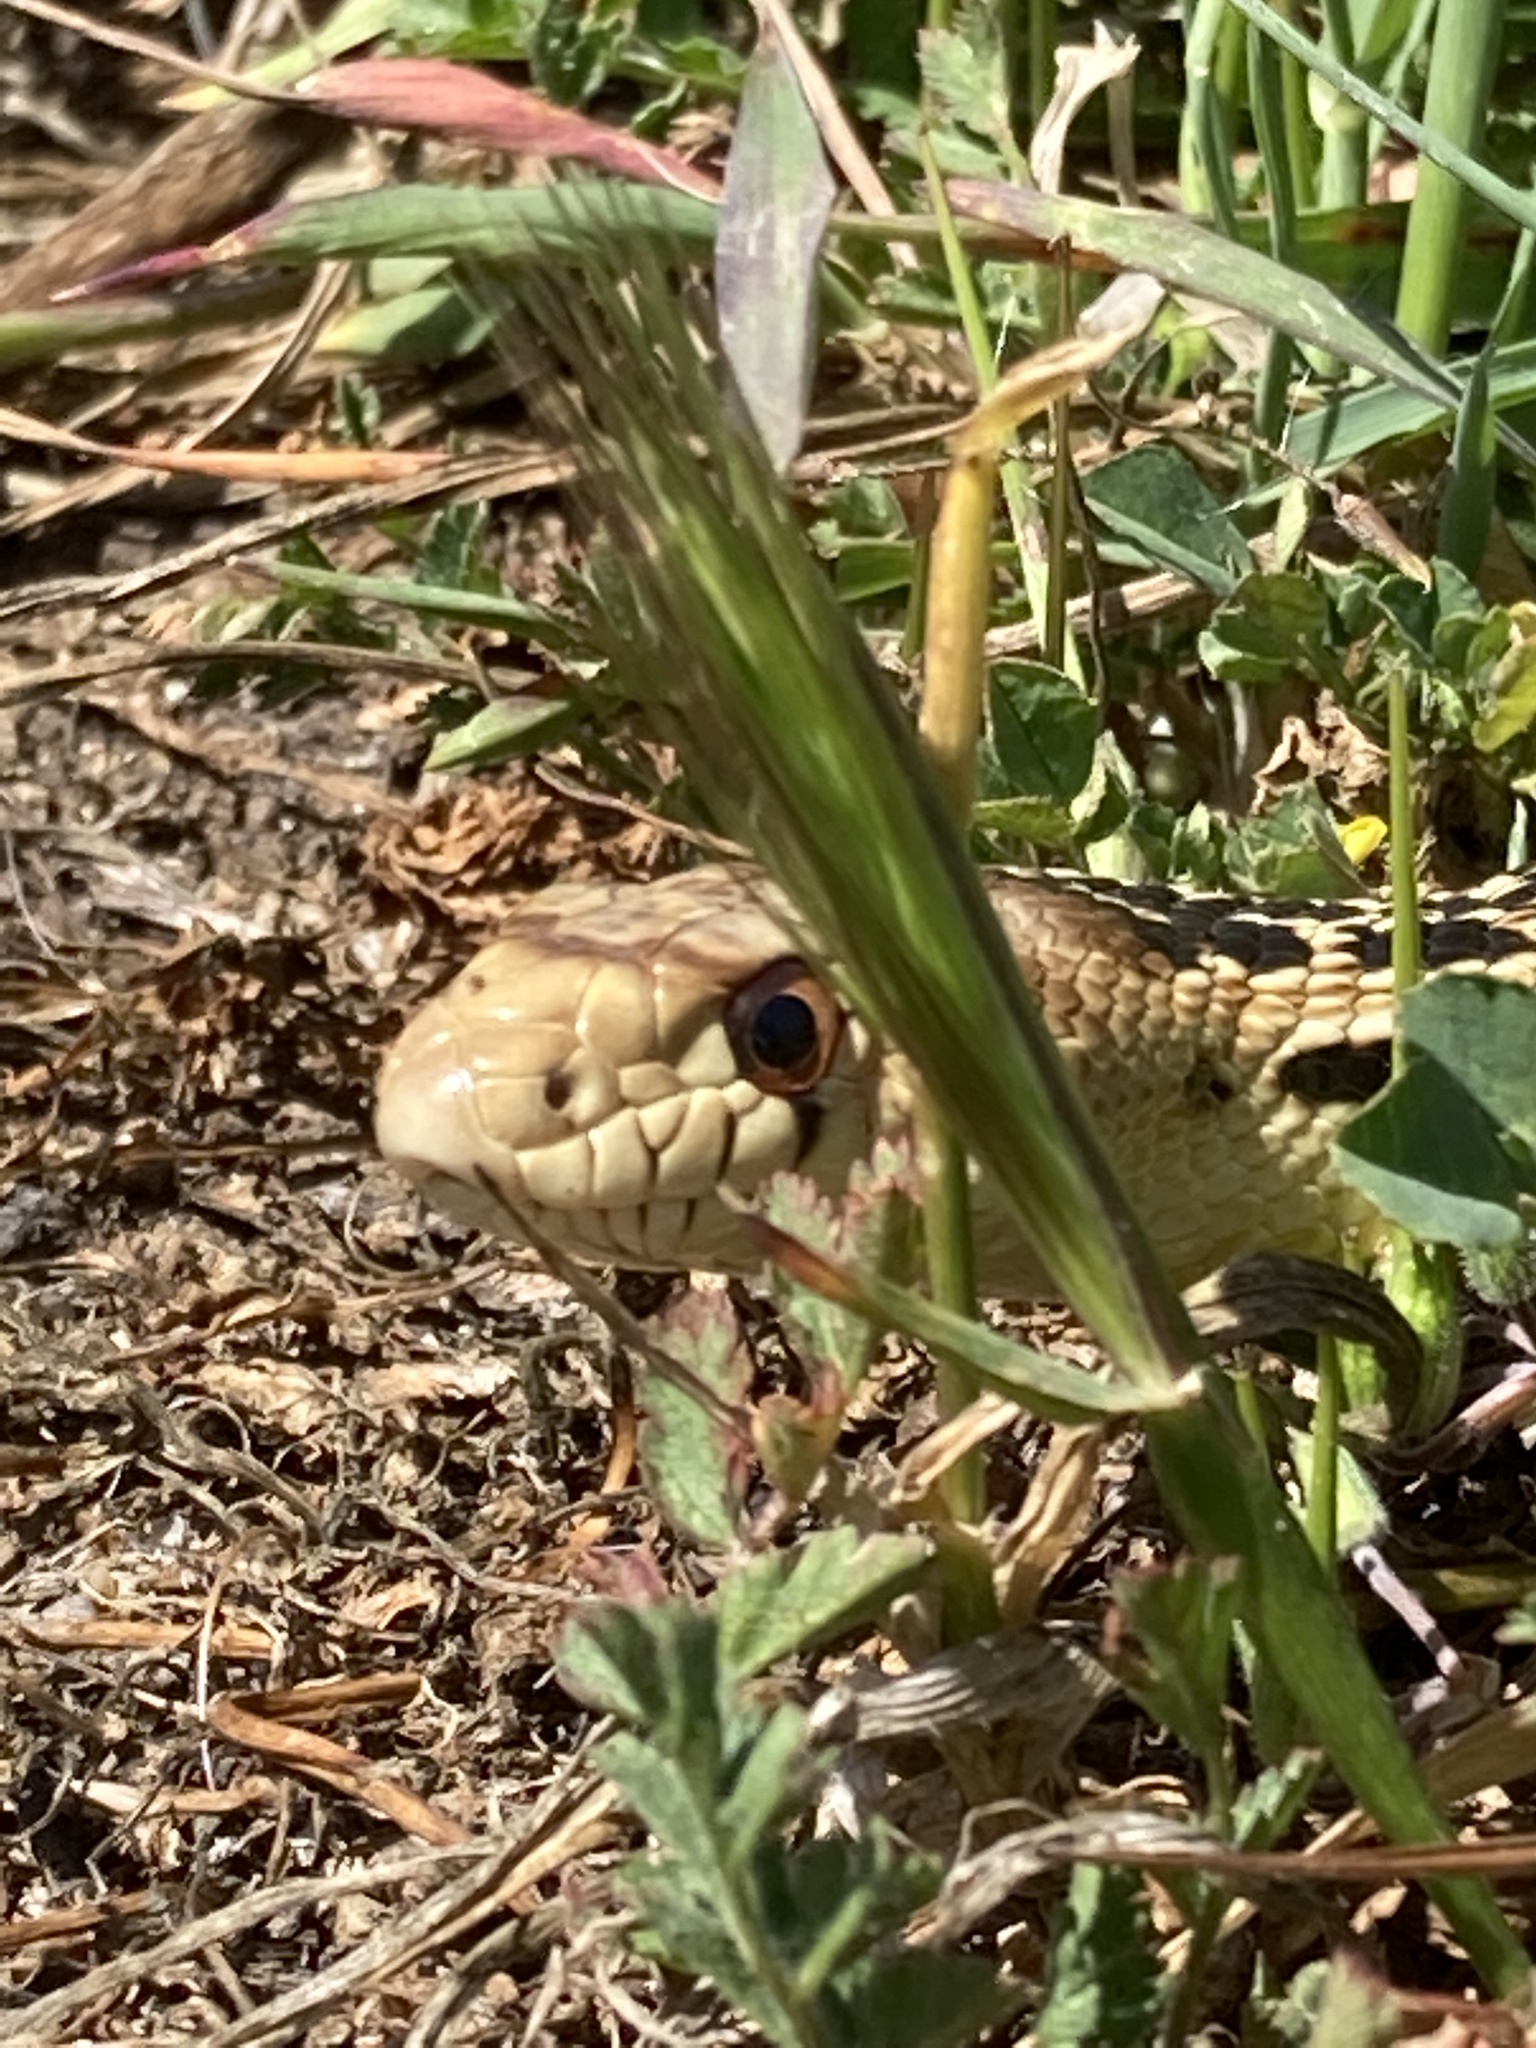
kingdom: Animalia
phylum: Chordata
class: Squamata
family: Colubridae
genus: Pituophis
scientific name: Pituophis catenifer
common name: Gopher snake
